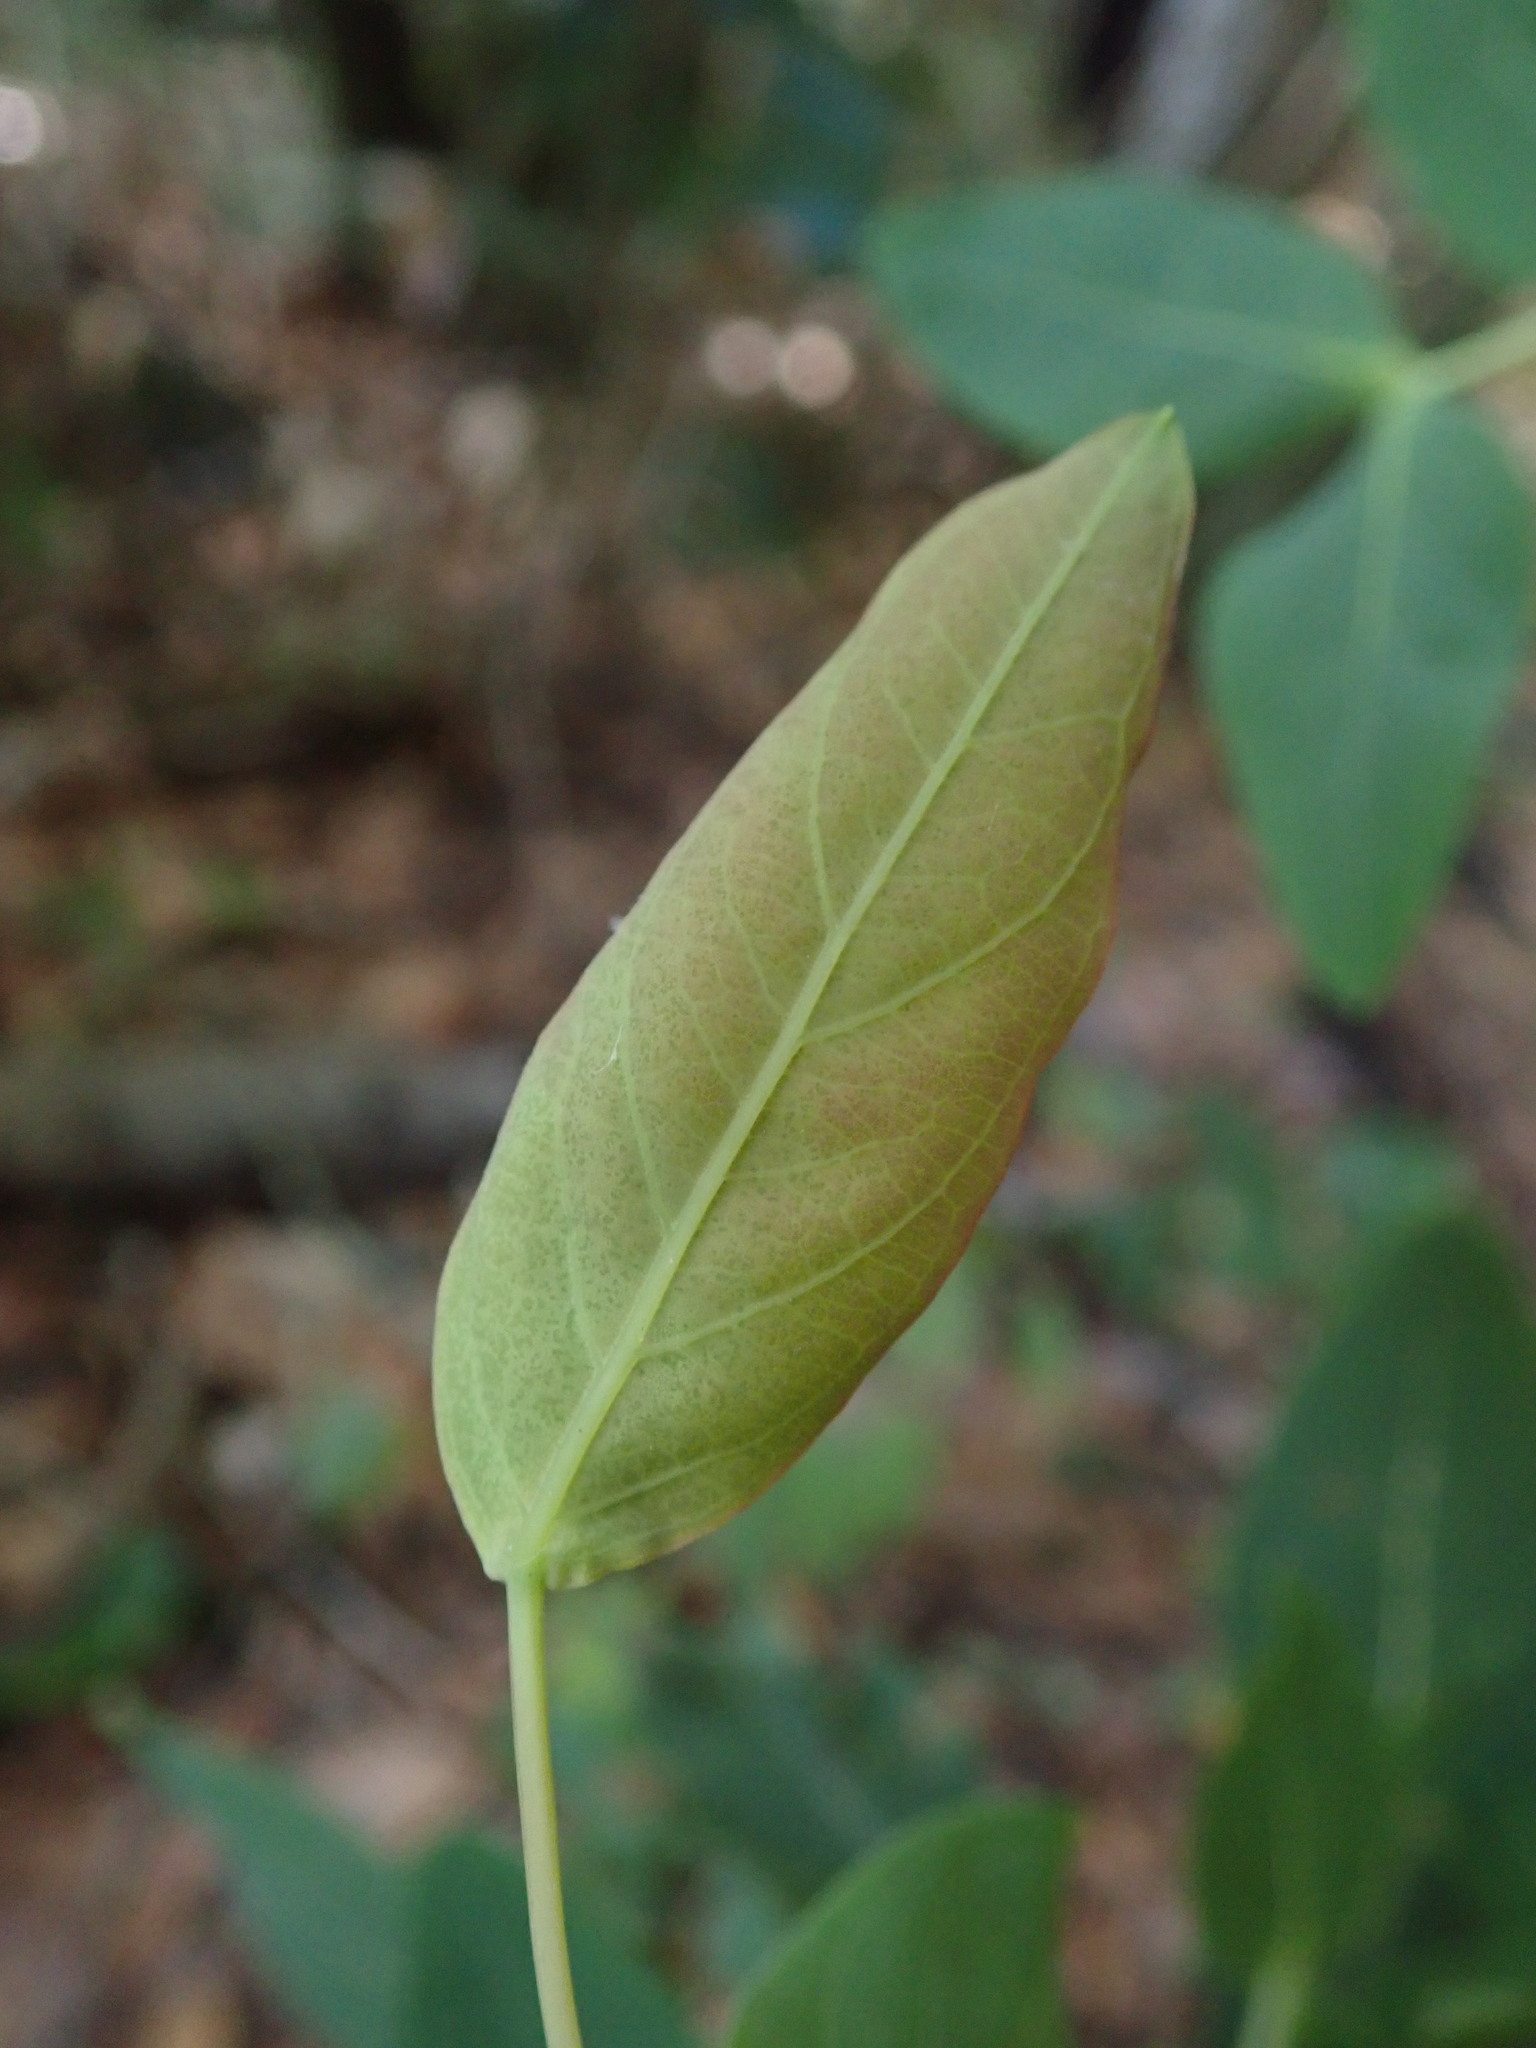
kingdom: Plantae
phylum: Tracheophyta
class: Magnoliopsida
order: Malpighiales
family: Hypericaceae
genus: Hypericum
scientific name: Hypericum grandifolium
